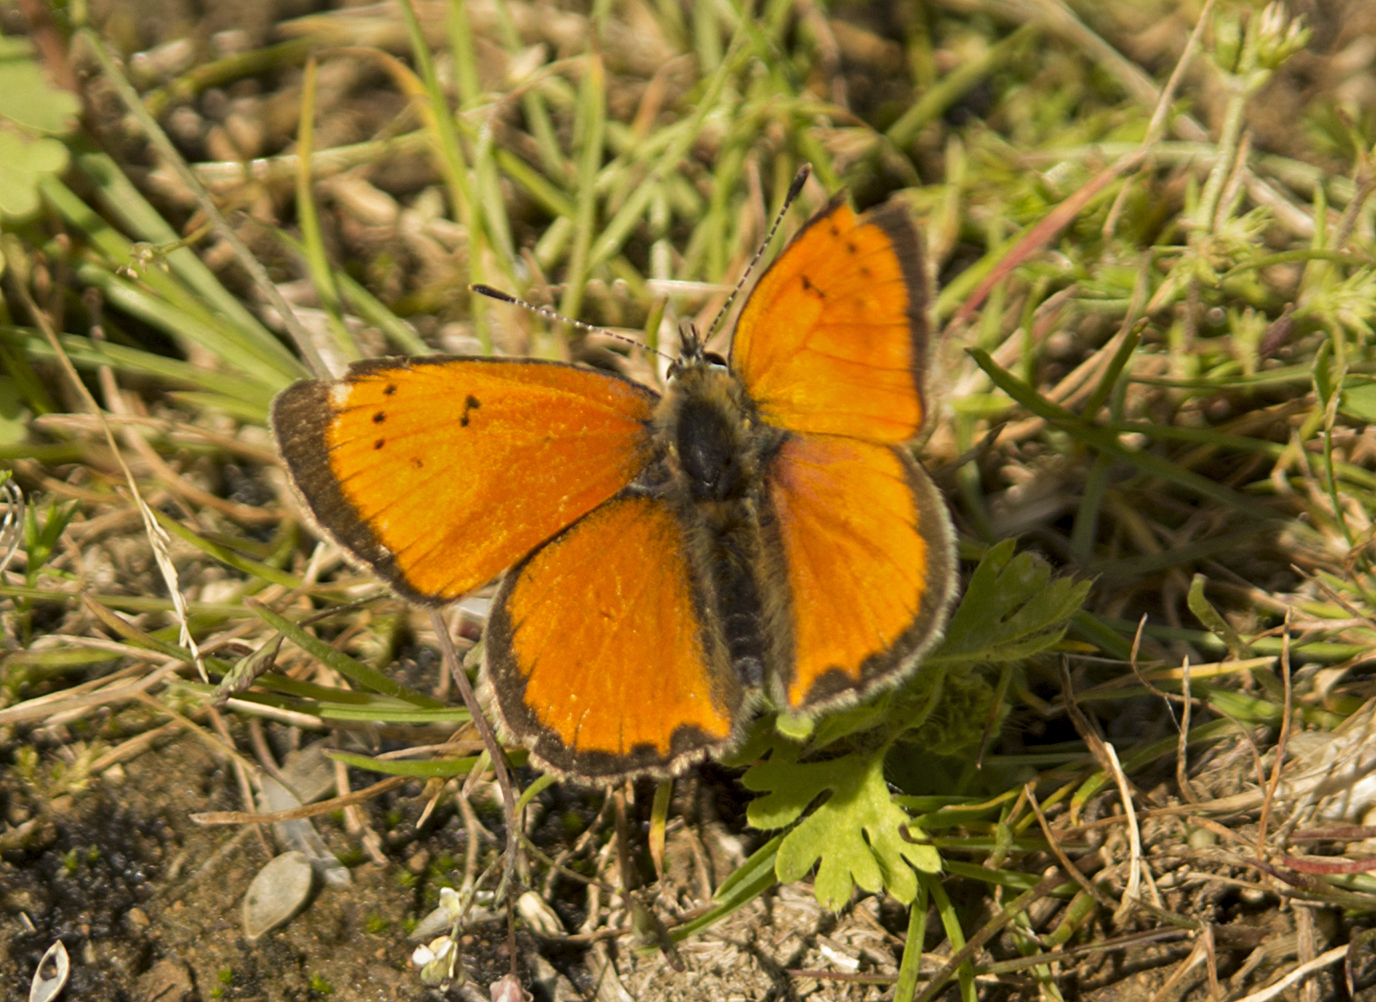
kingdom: Animalia
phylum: Arthropoda
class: Insecta
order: Lepidoptera
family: Lycaenidae
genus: Polyommatus
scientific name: Polyommatus ottomanus
